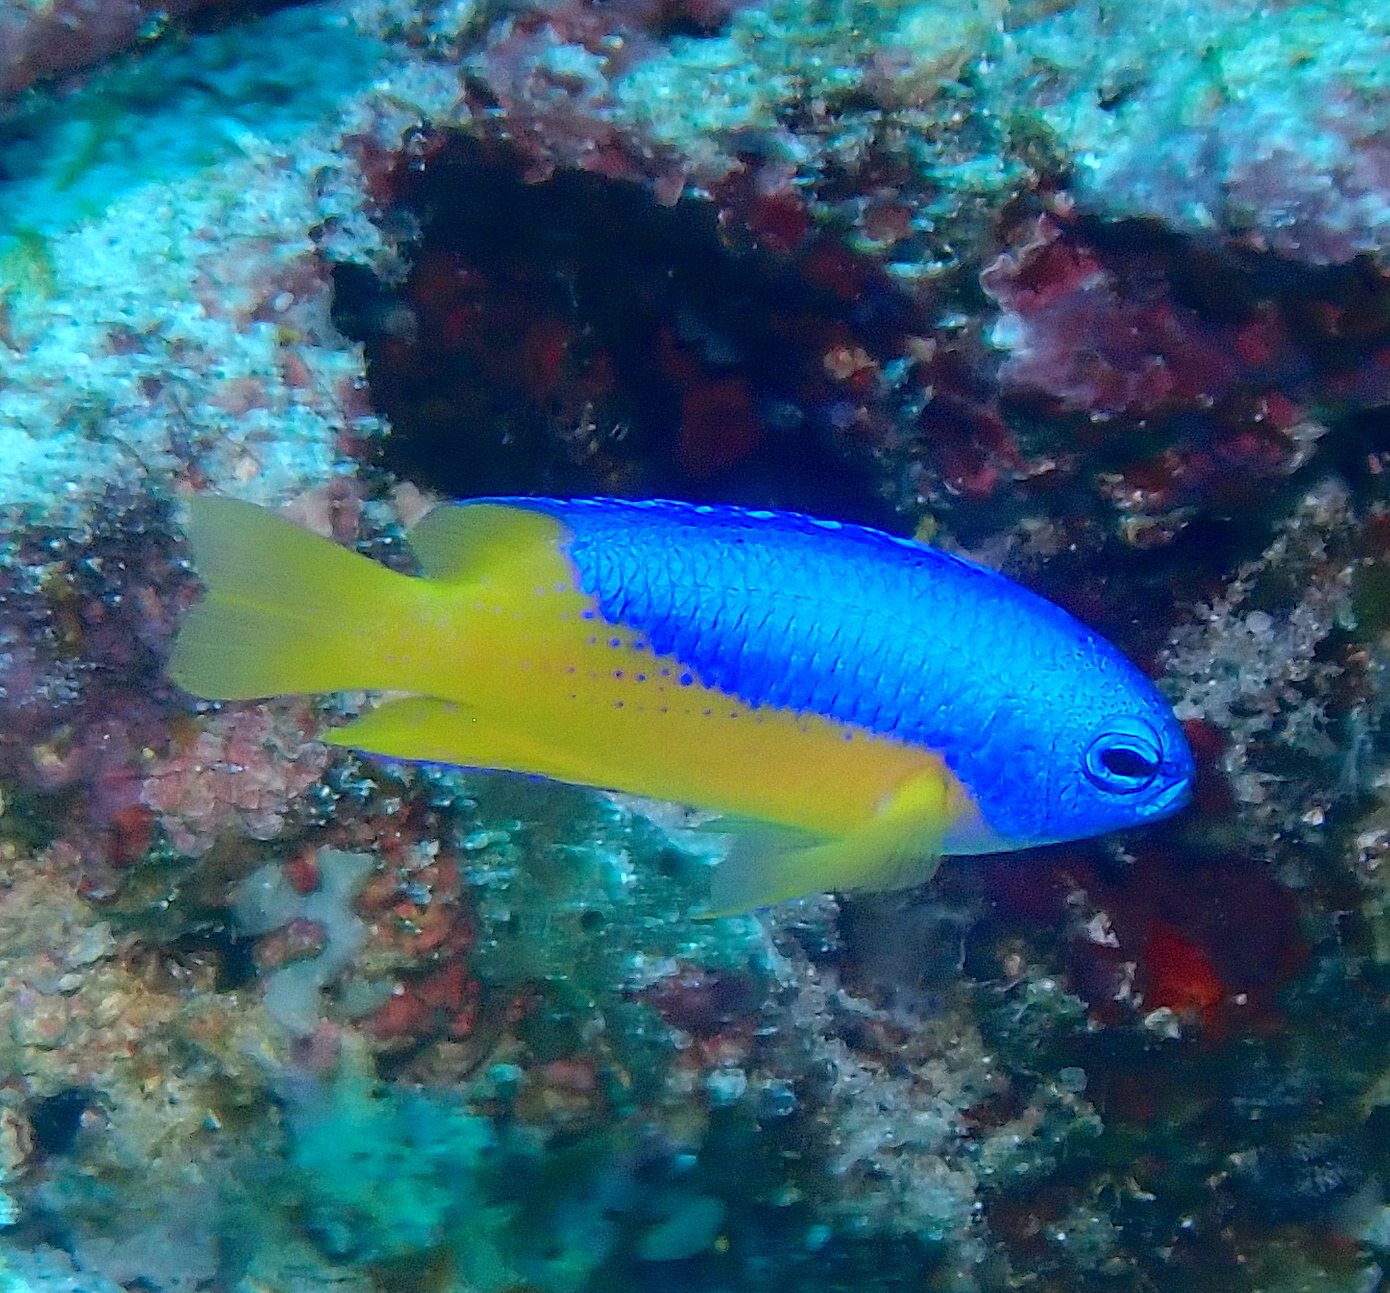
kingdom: Animalia
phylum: Chordata
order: Perciformes
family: Pomacentridae
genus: Pomacentrus
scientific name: Pomacentrus auriventris
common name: Goldbelly damsel
